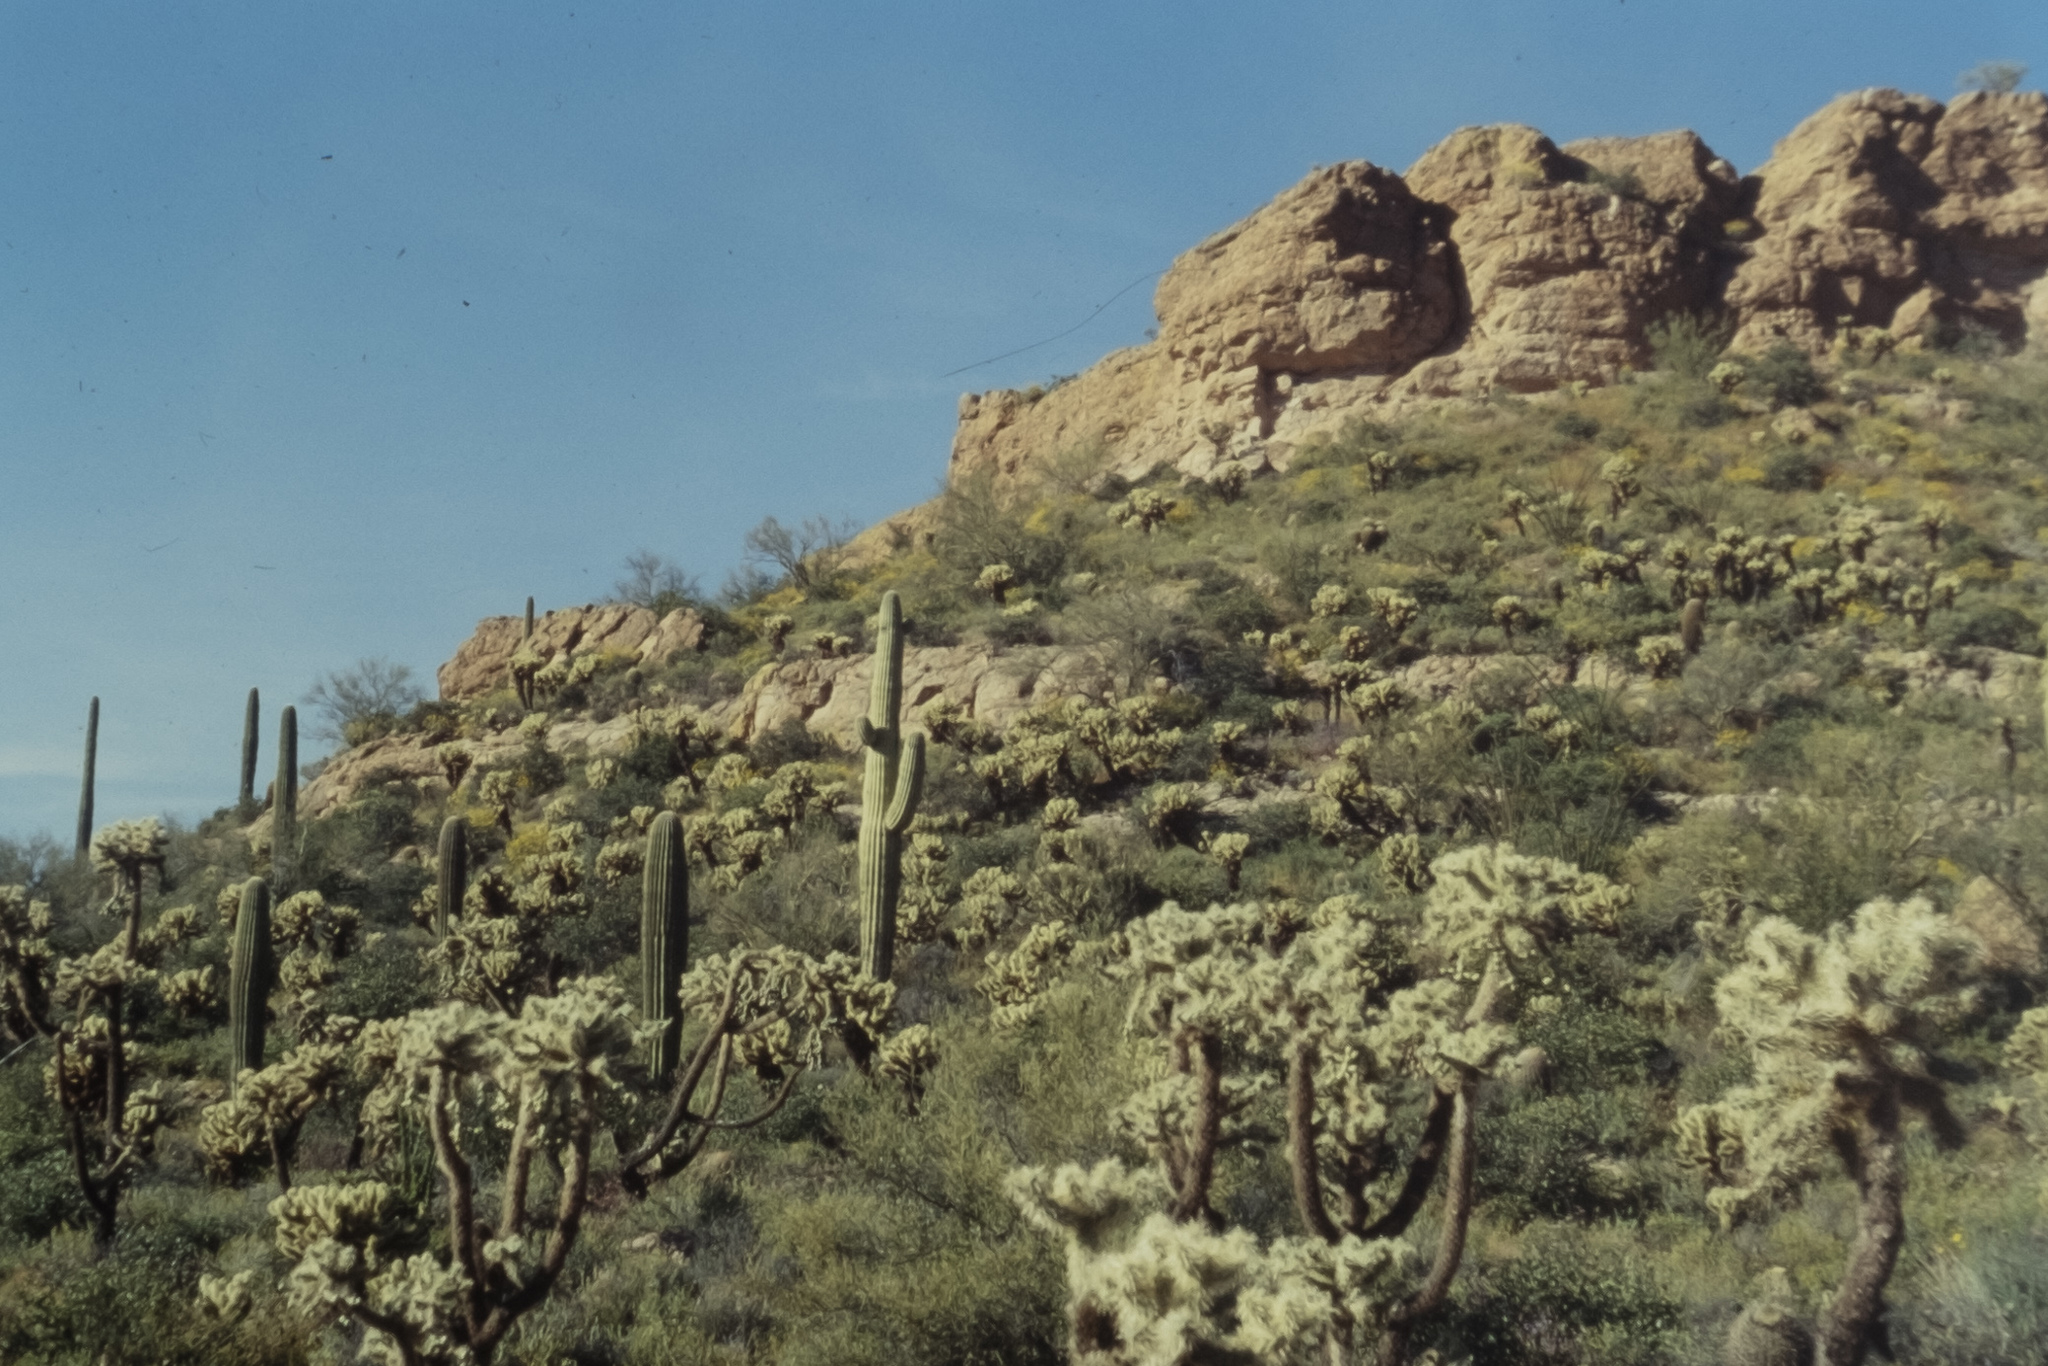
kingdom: Plantae
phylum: Tracheophyta
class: Magnoliopsida
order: Caryophyllales
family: Cactaceae
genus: Cylindropuntia
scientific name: Cylindropuntia fosbergii
